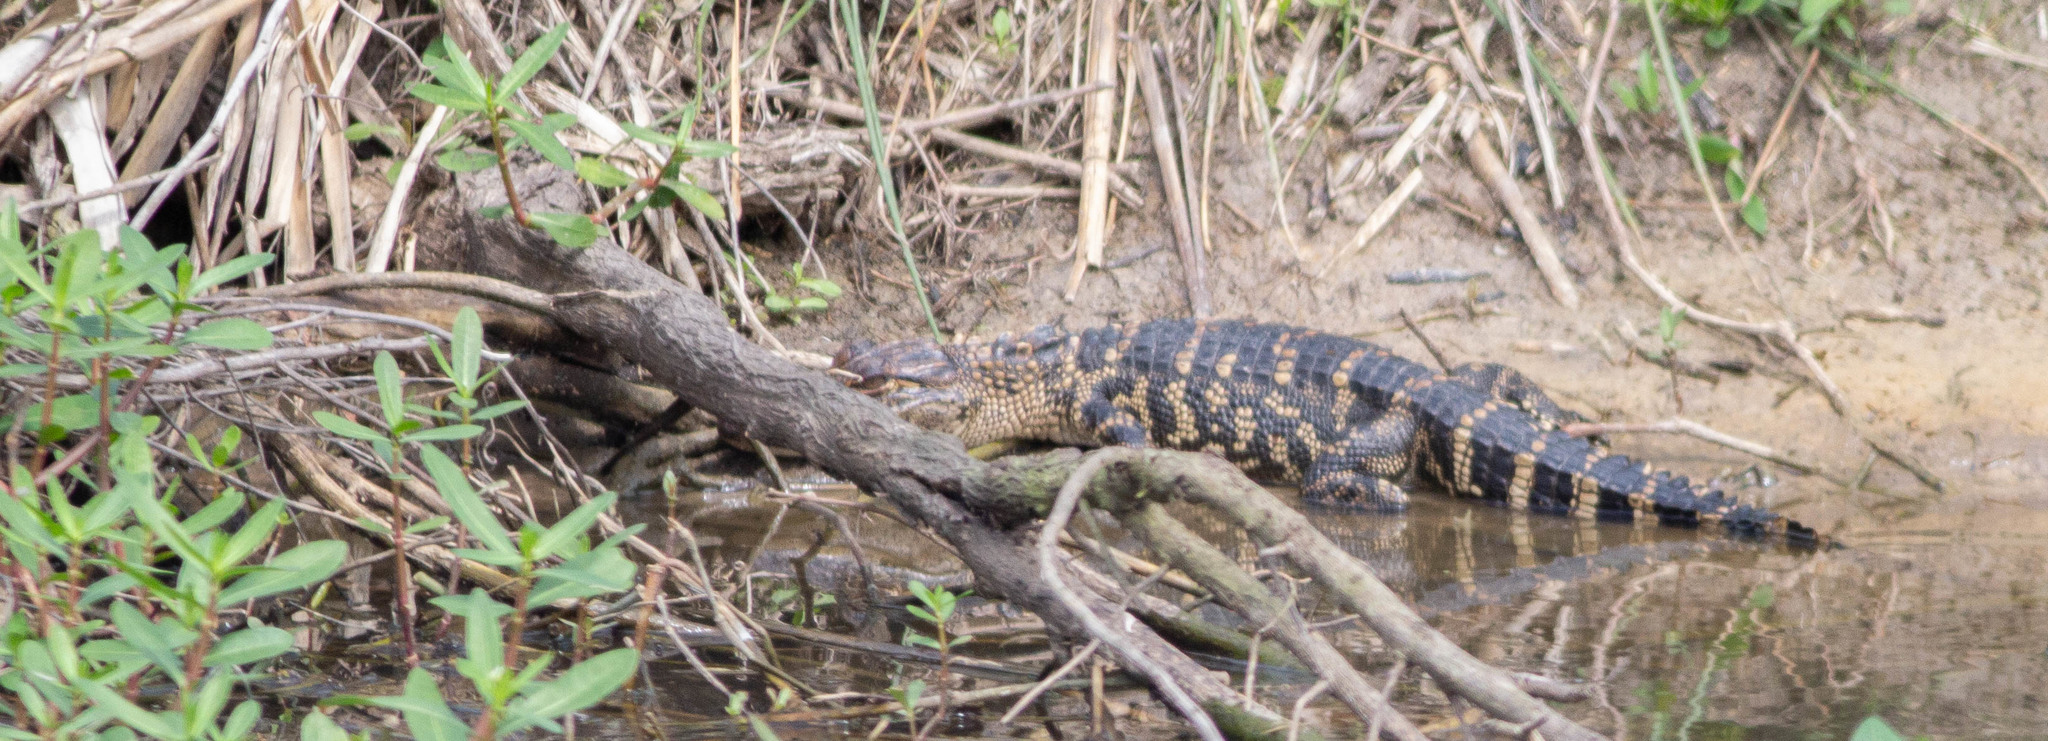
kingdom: Animalia
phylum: Chordata
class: Crocodylia
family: Alligatoridae
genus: Alligator
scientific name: Alligator mississippiensis
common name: American alligator
